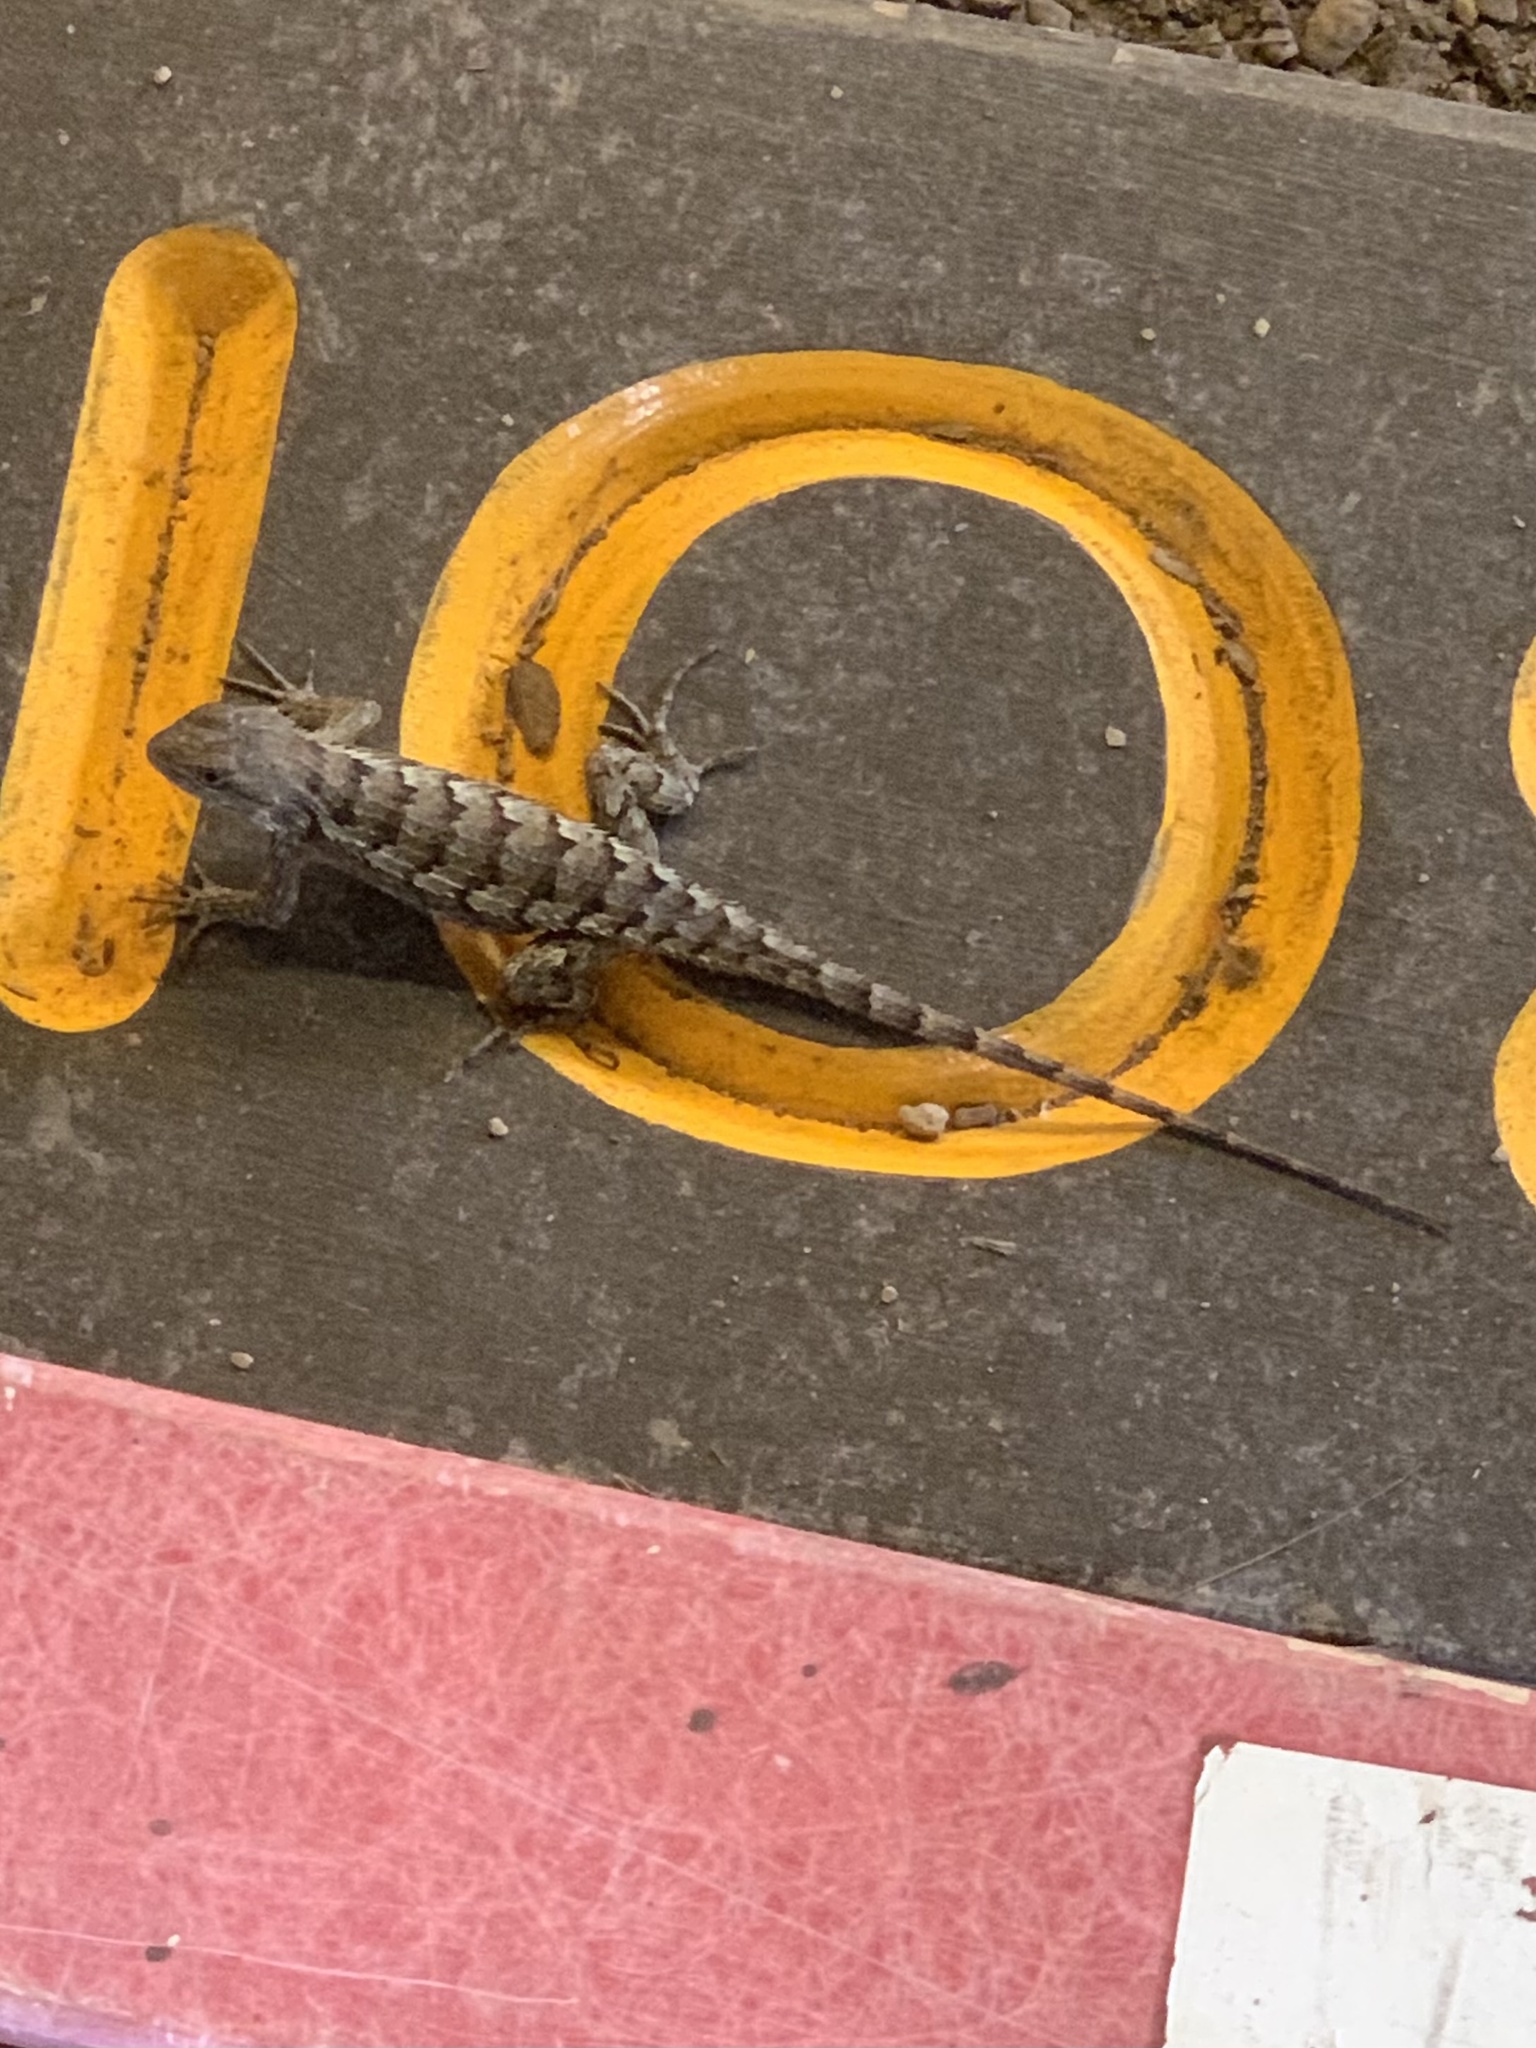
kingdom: Animalia
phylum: Chordata
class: Squamata
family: Phrynosomatidae
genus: Sceloporus
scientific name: Sceloporus olivaceus
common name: Texas spiny lizard
